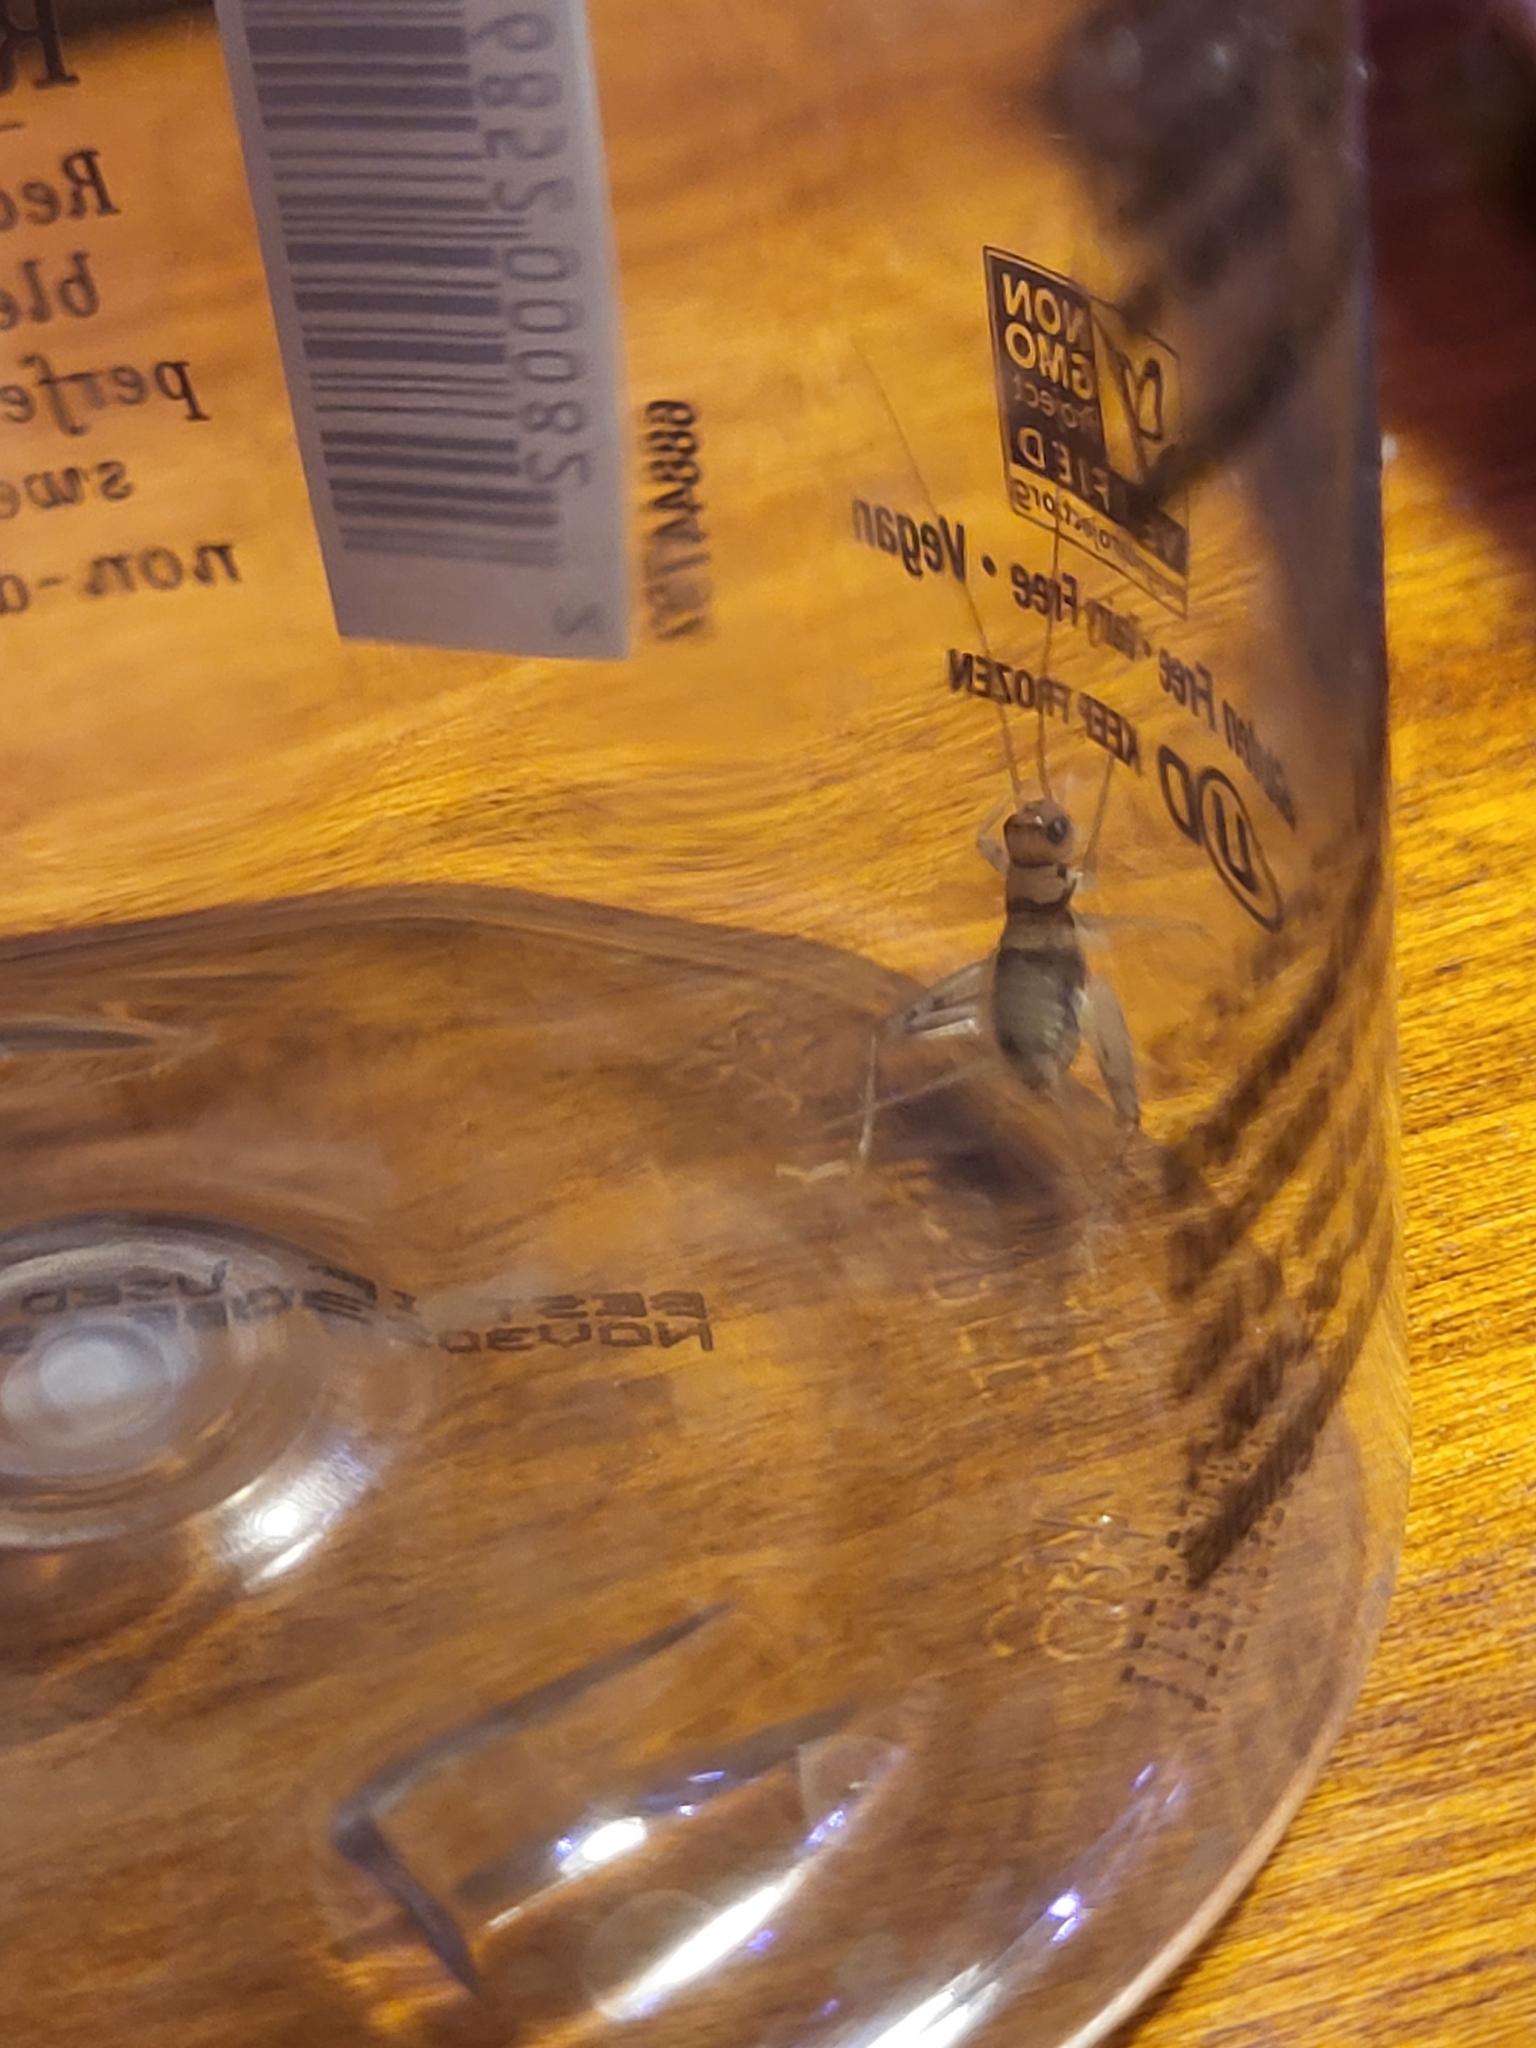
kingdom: Animalia
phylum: Arthropoda
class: Insecta
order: Orthoptera
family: Gryllidae
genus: Gryllodes
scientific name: Gryllodes sigillatus
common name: Tropical house cricket
